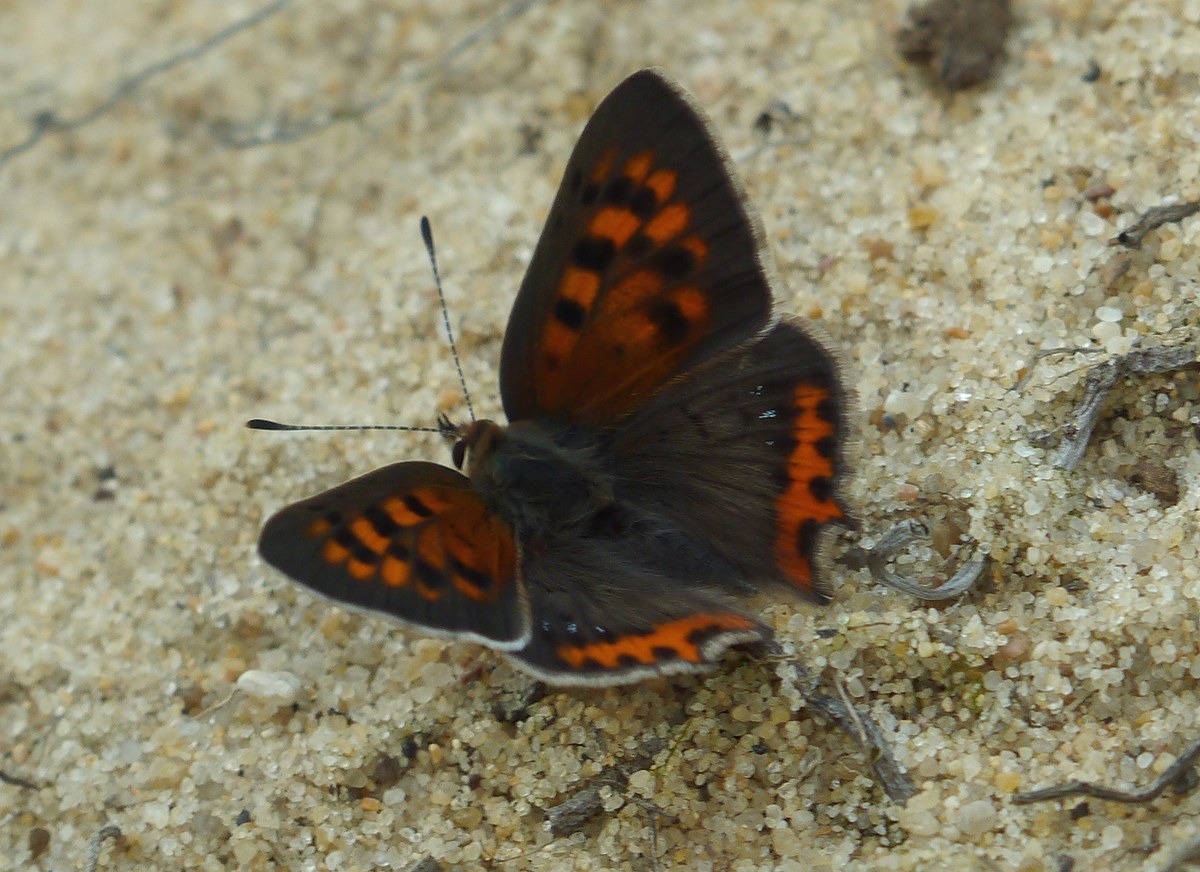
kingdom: Animalia
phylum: Arthropoda
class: Insecta
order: Lepidoptera
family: Lycaenidae
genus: Lycaena
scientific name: Lycaena phlaeas
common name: Small copper
